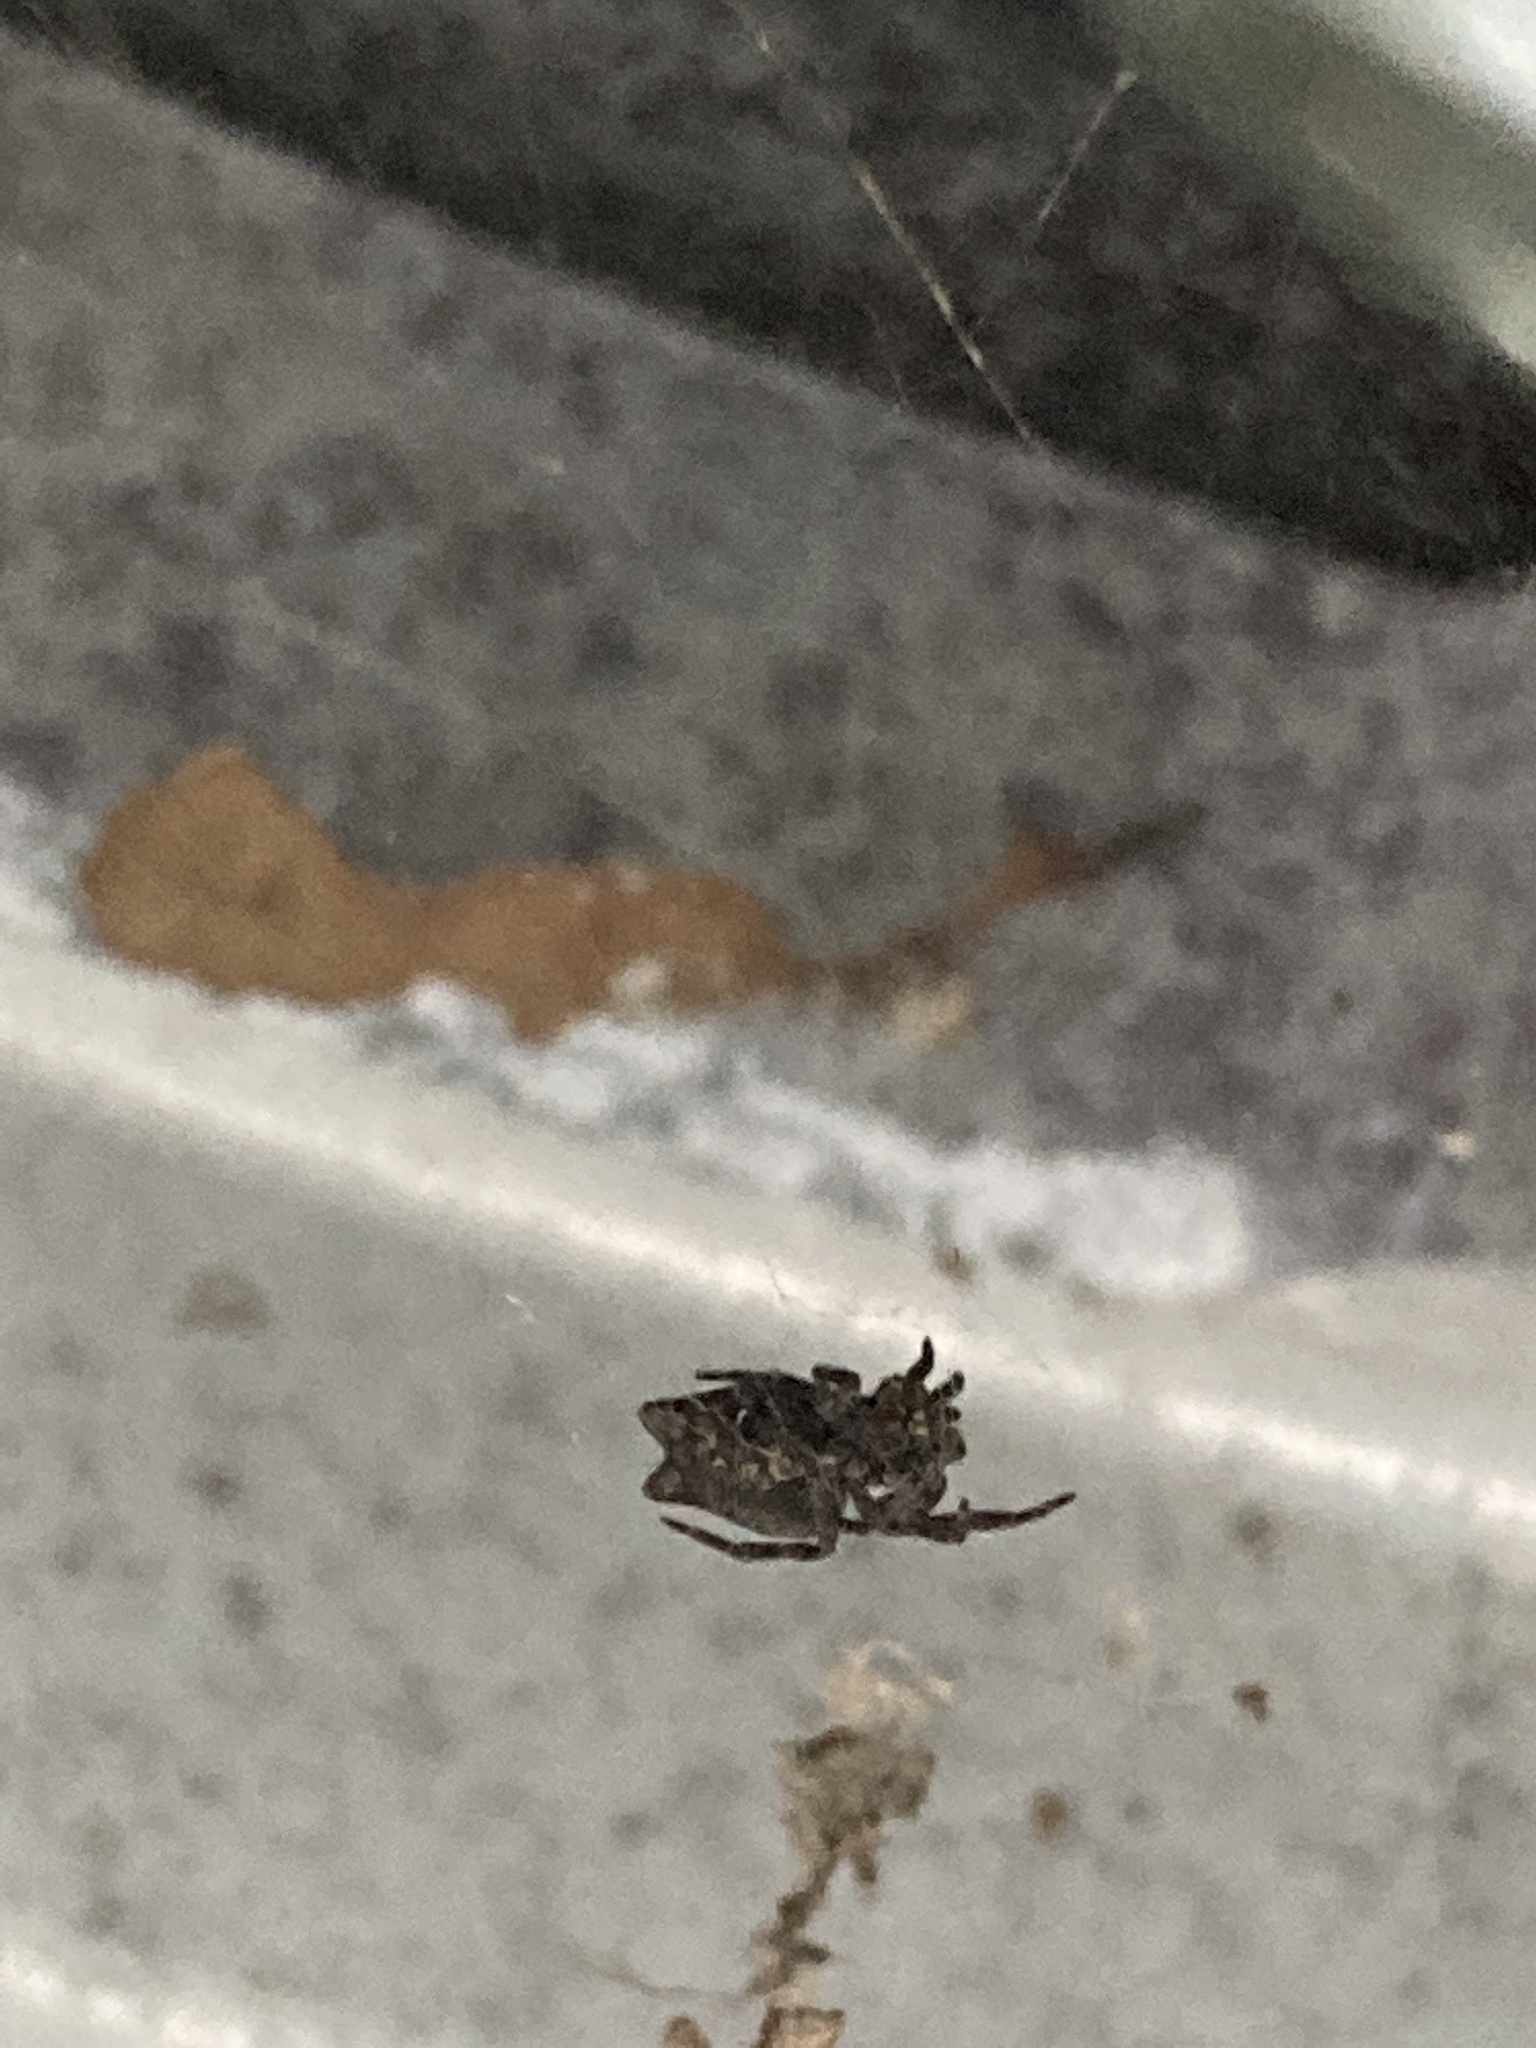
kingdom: Animalia
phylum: Arthropoda
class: Arachnida
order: Araneae
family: Araneidae
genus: Cyrtophora
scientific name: Cyrtophora citricola
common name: Orb weavers
